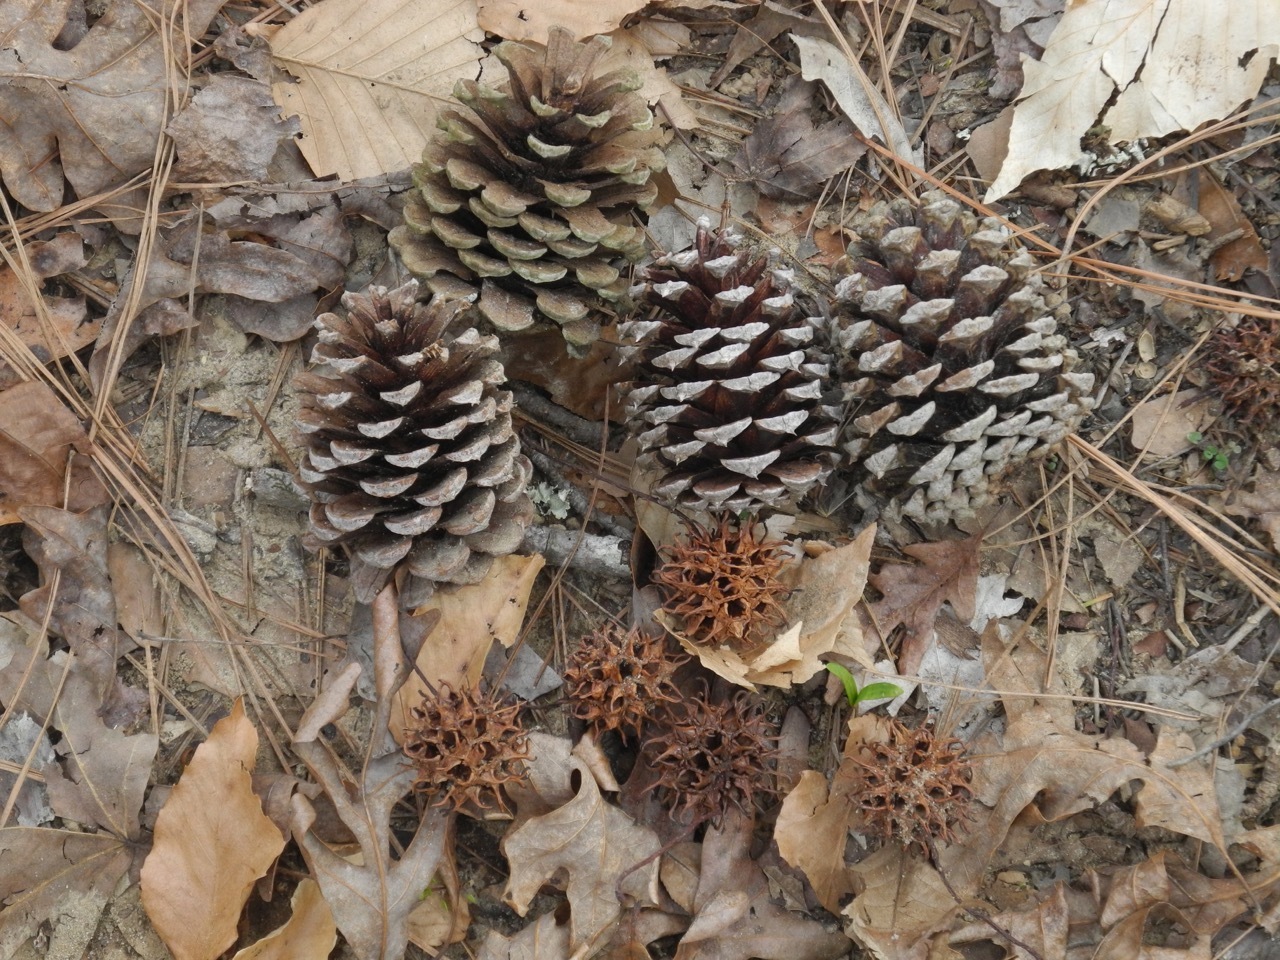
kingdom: Plantae
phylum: Tracheophyta
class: Pinopsida
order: Pinales
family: Pinaceae
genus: Pinus
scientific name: Pinus taeda
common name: Loblolly pine
